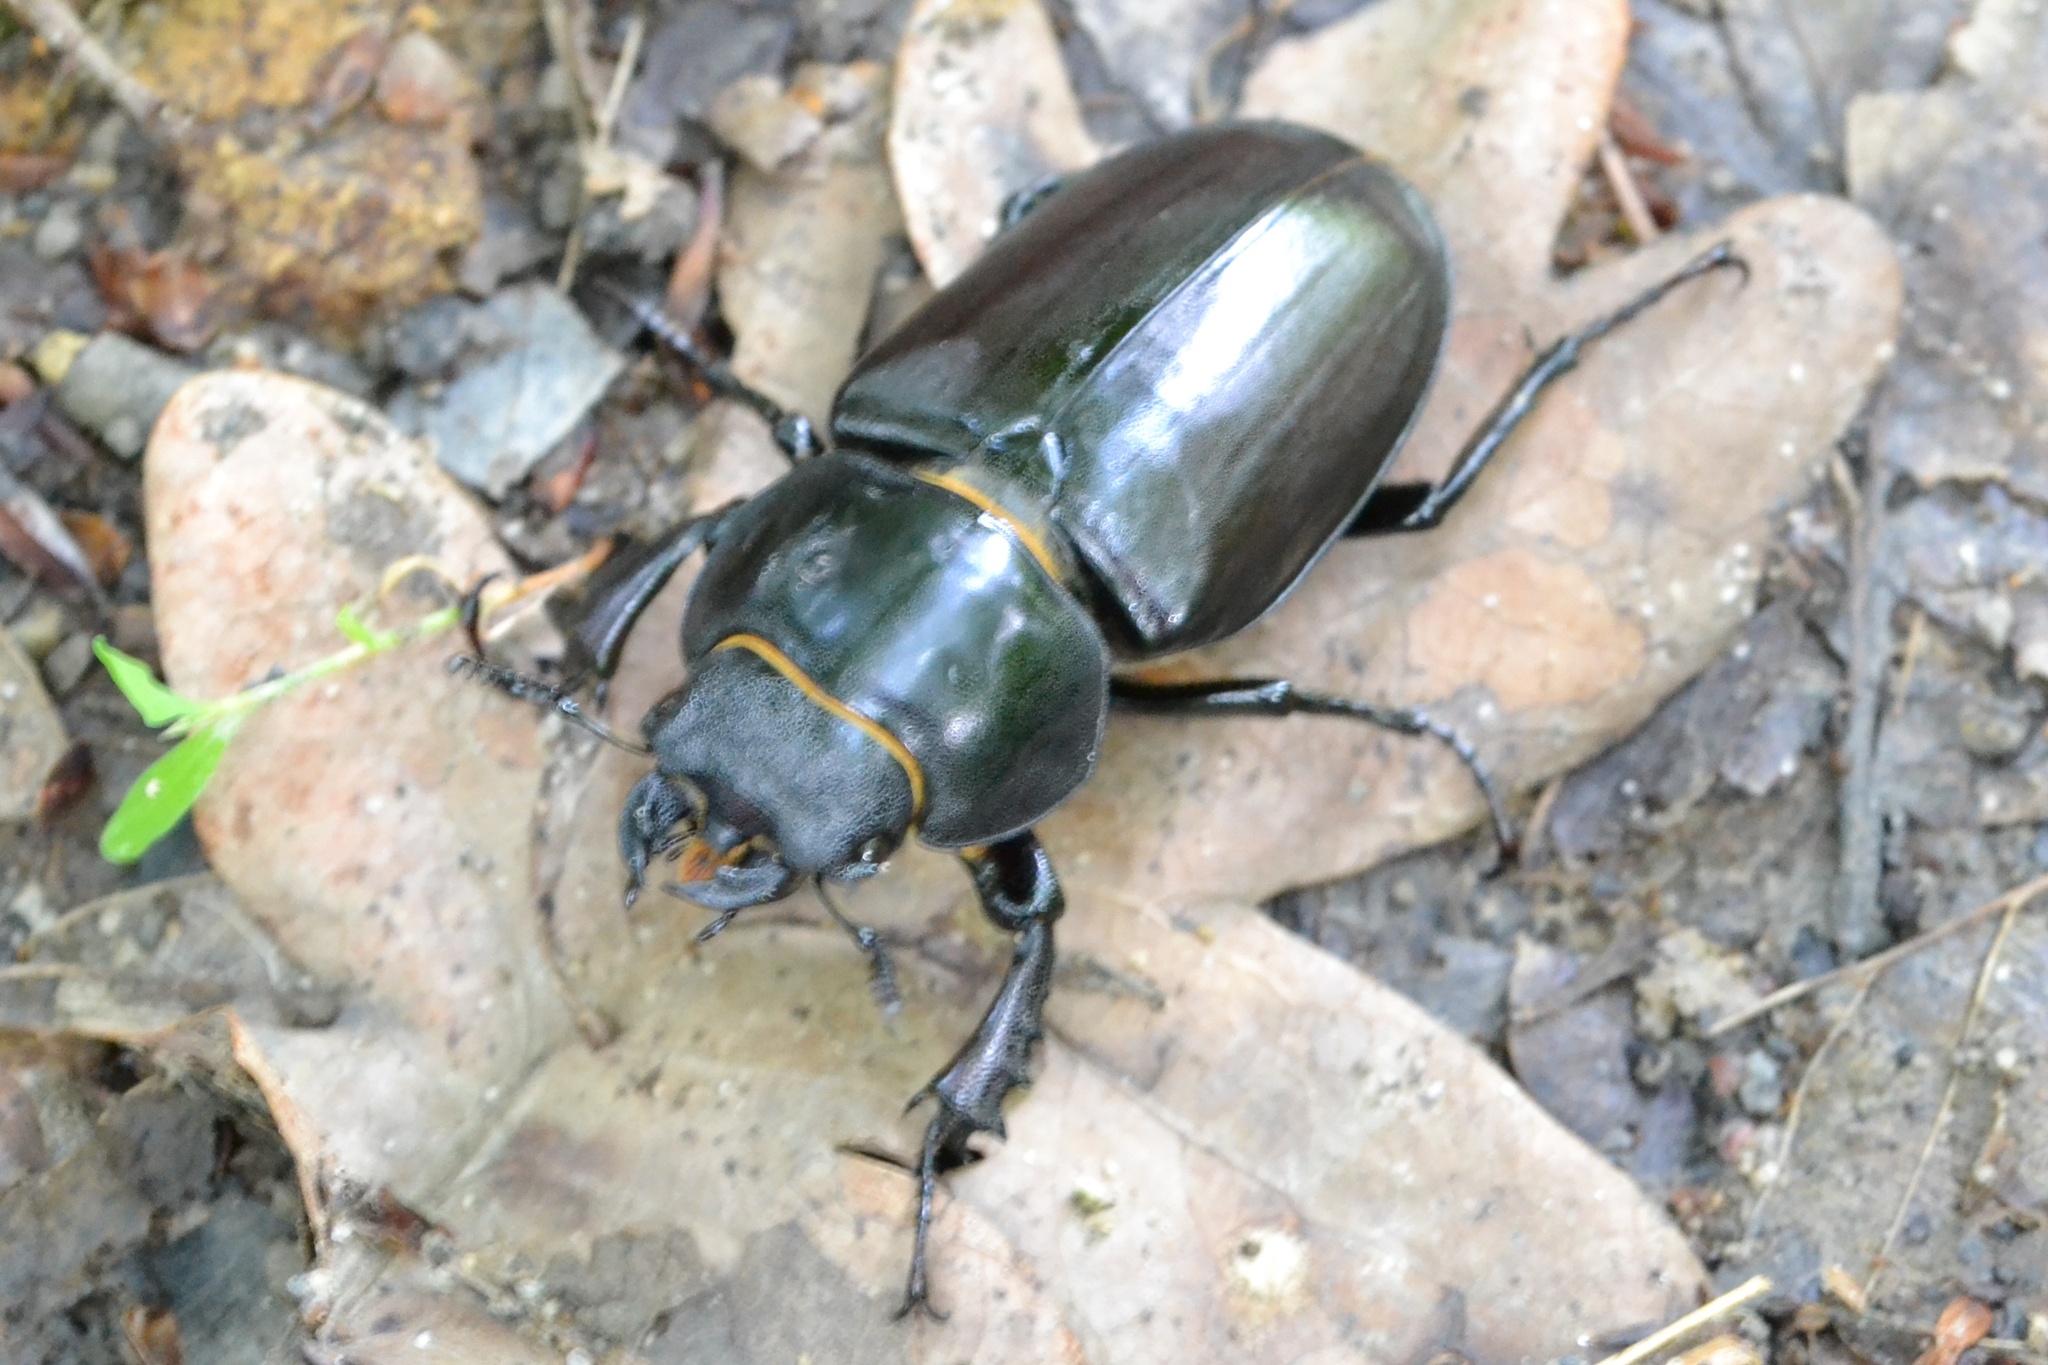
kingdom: Animalia
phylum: Arthropoda
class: Insecta
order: Coleoptera
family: Lucanidae
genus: Lucanus
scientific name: Lucanus cervus
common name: Stag beetle
